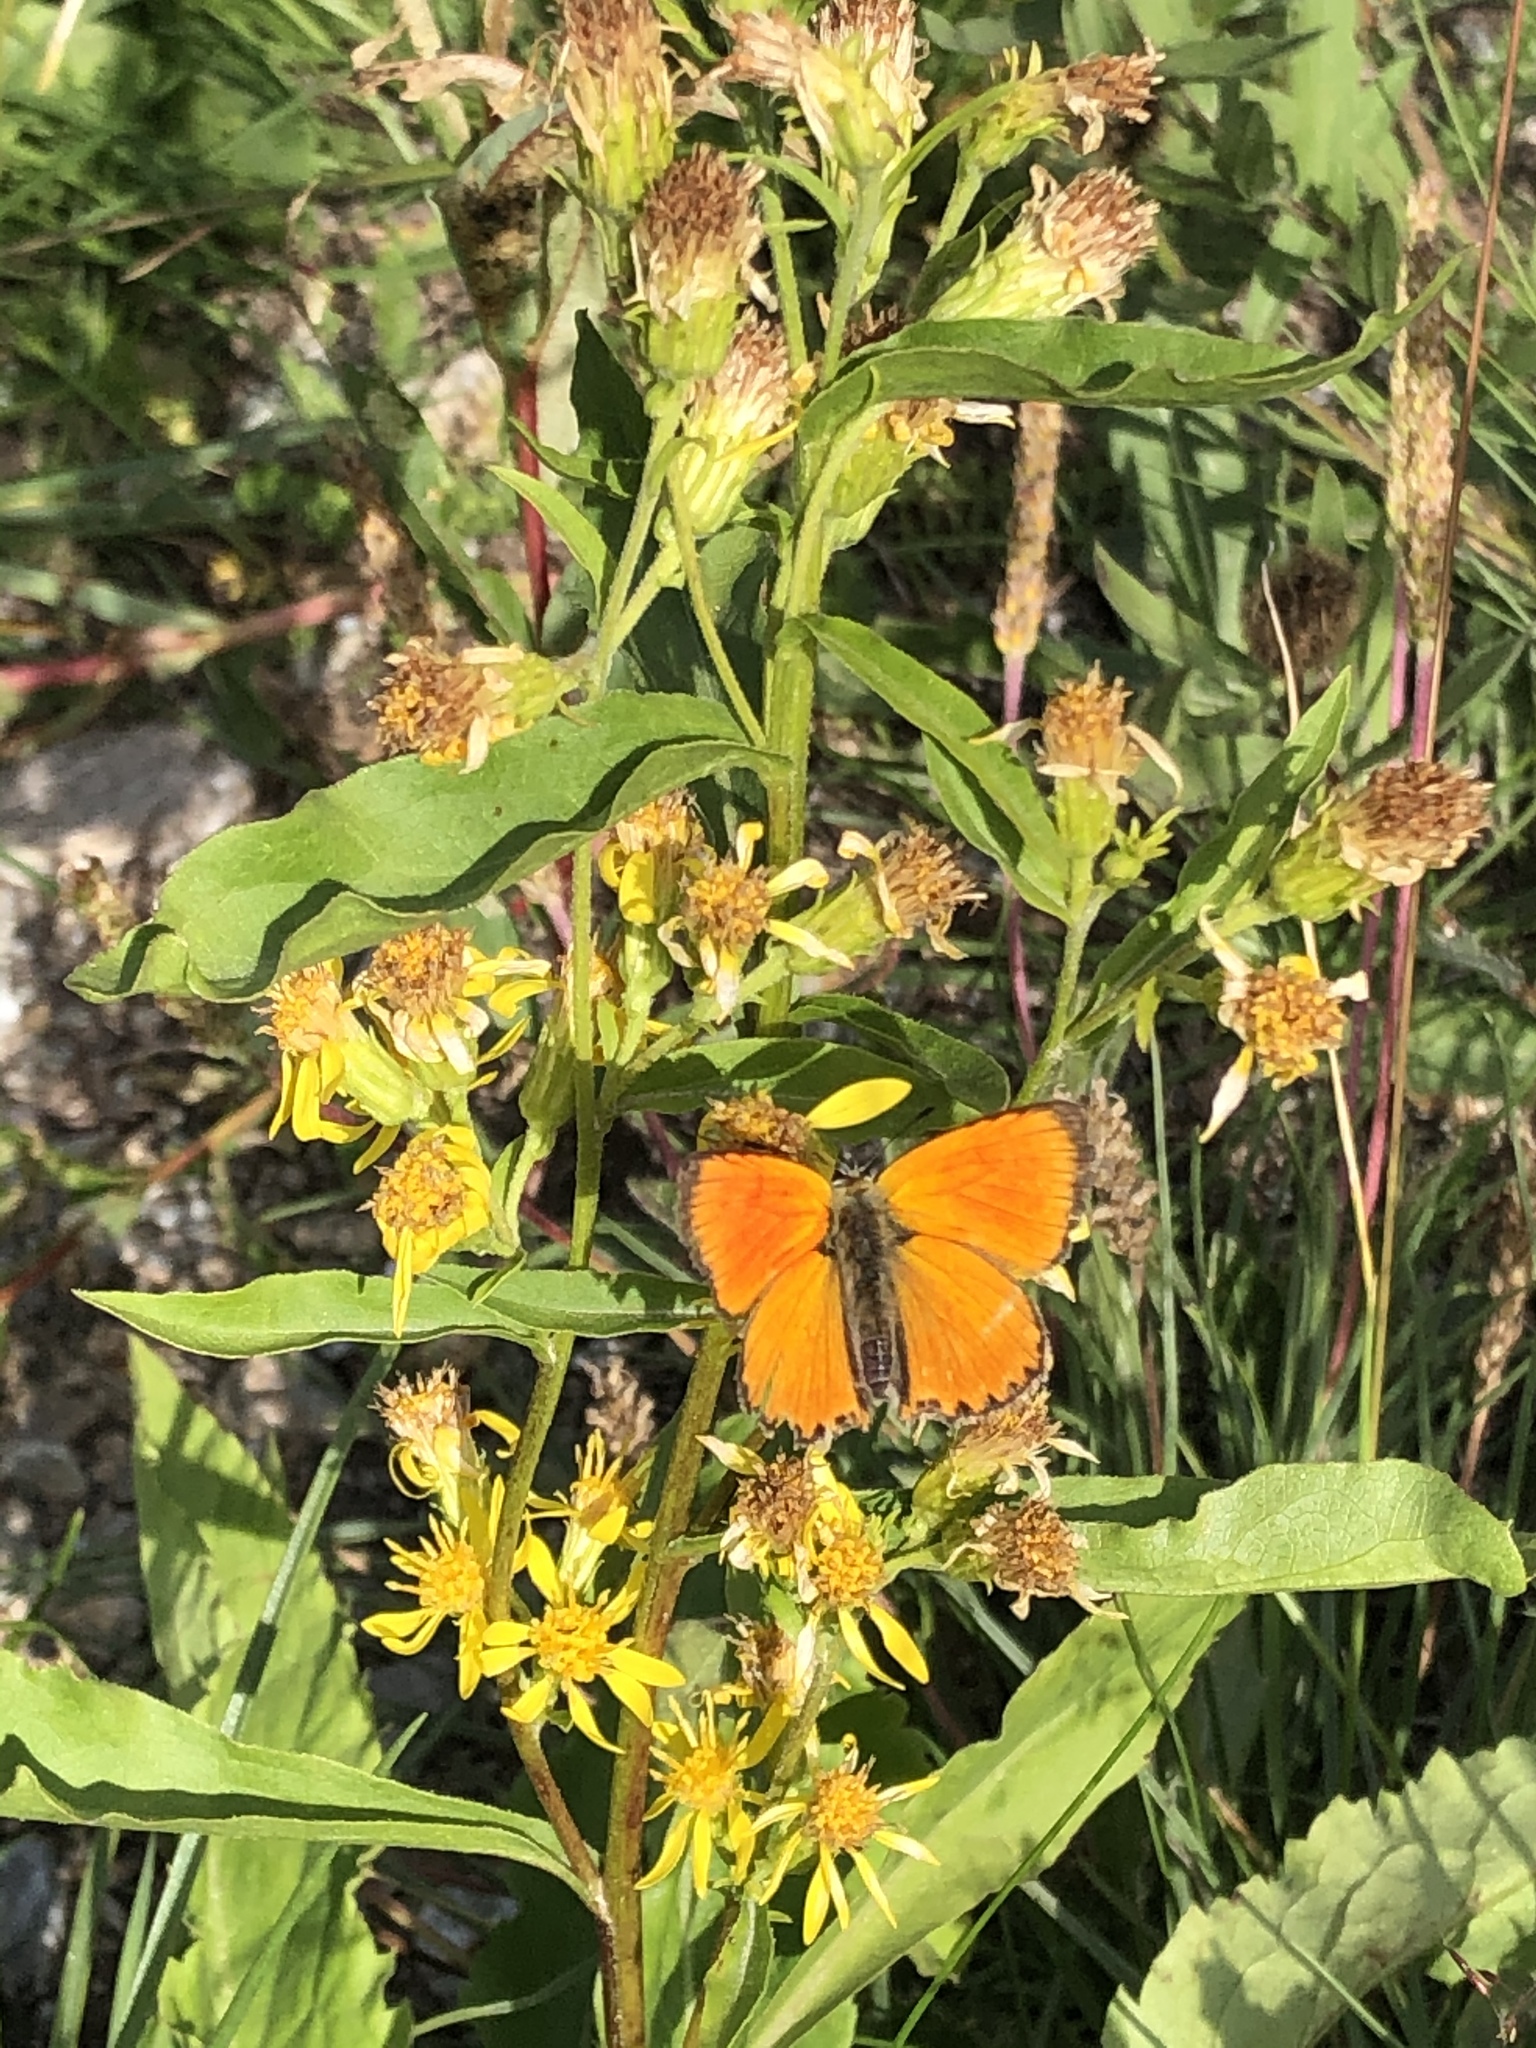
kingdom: Animalia
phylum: Arthropoda
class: Insecta
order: Lepidoptera
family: Lycaenidae
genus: Lycaena
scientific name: Lycaena virgaureae
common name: Scarce copper
